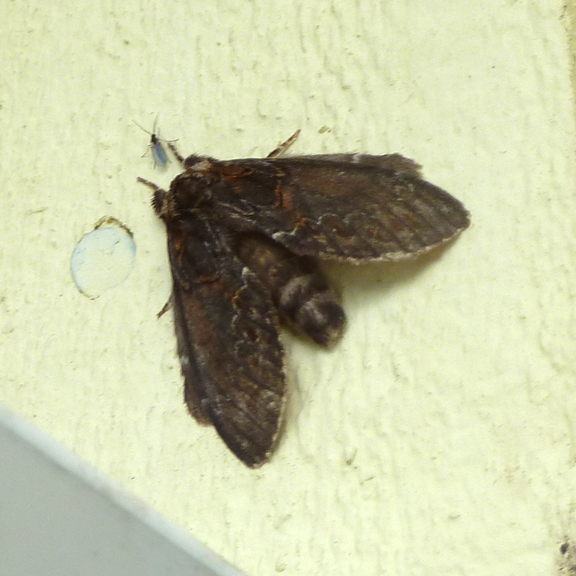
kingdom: Animalia
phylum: Arthropoda
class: Insecta
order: Lepidoptera
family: Notodontidae
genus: Peridea
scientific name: Peridea basitriens
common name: Oval-based prominent
